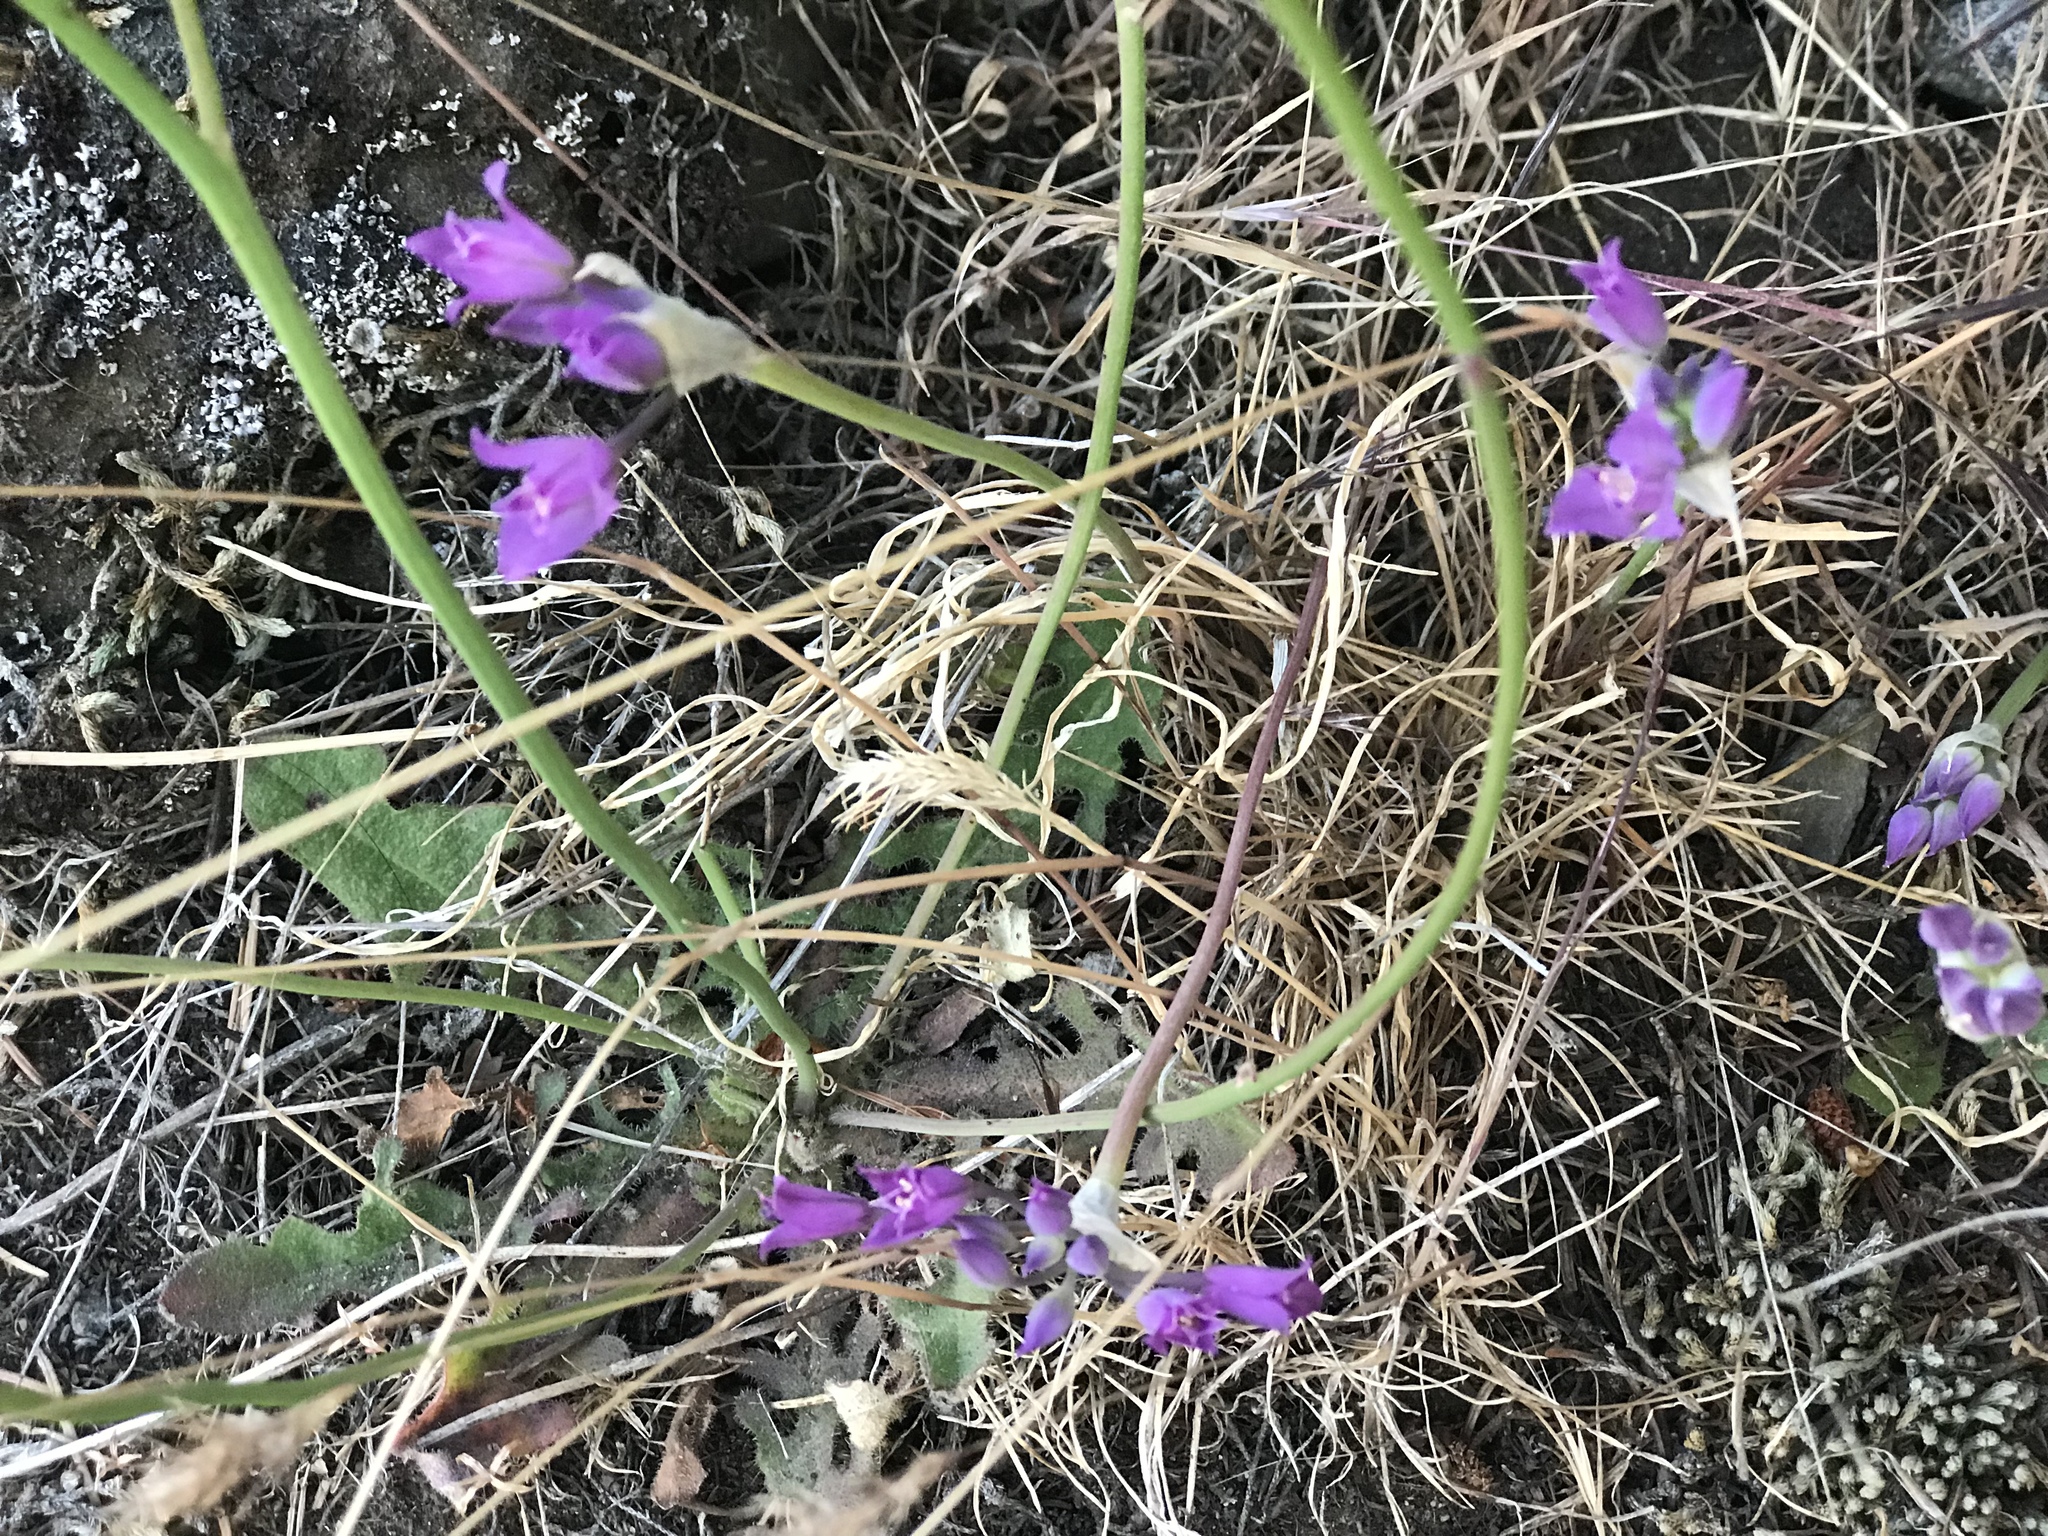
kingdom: Plantae
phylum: Tracheophyta
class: Liliopsida
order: Asparagales
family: Amaryllidaceae
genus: Allium
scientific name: Allium acuminatum
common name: Hooker's onion
